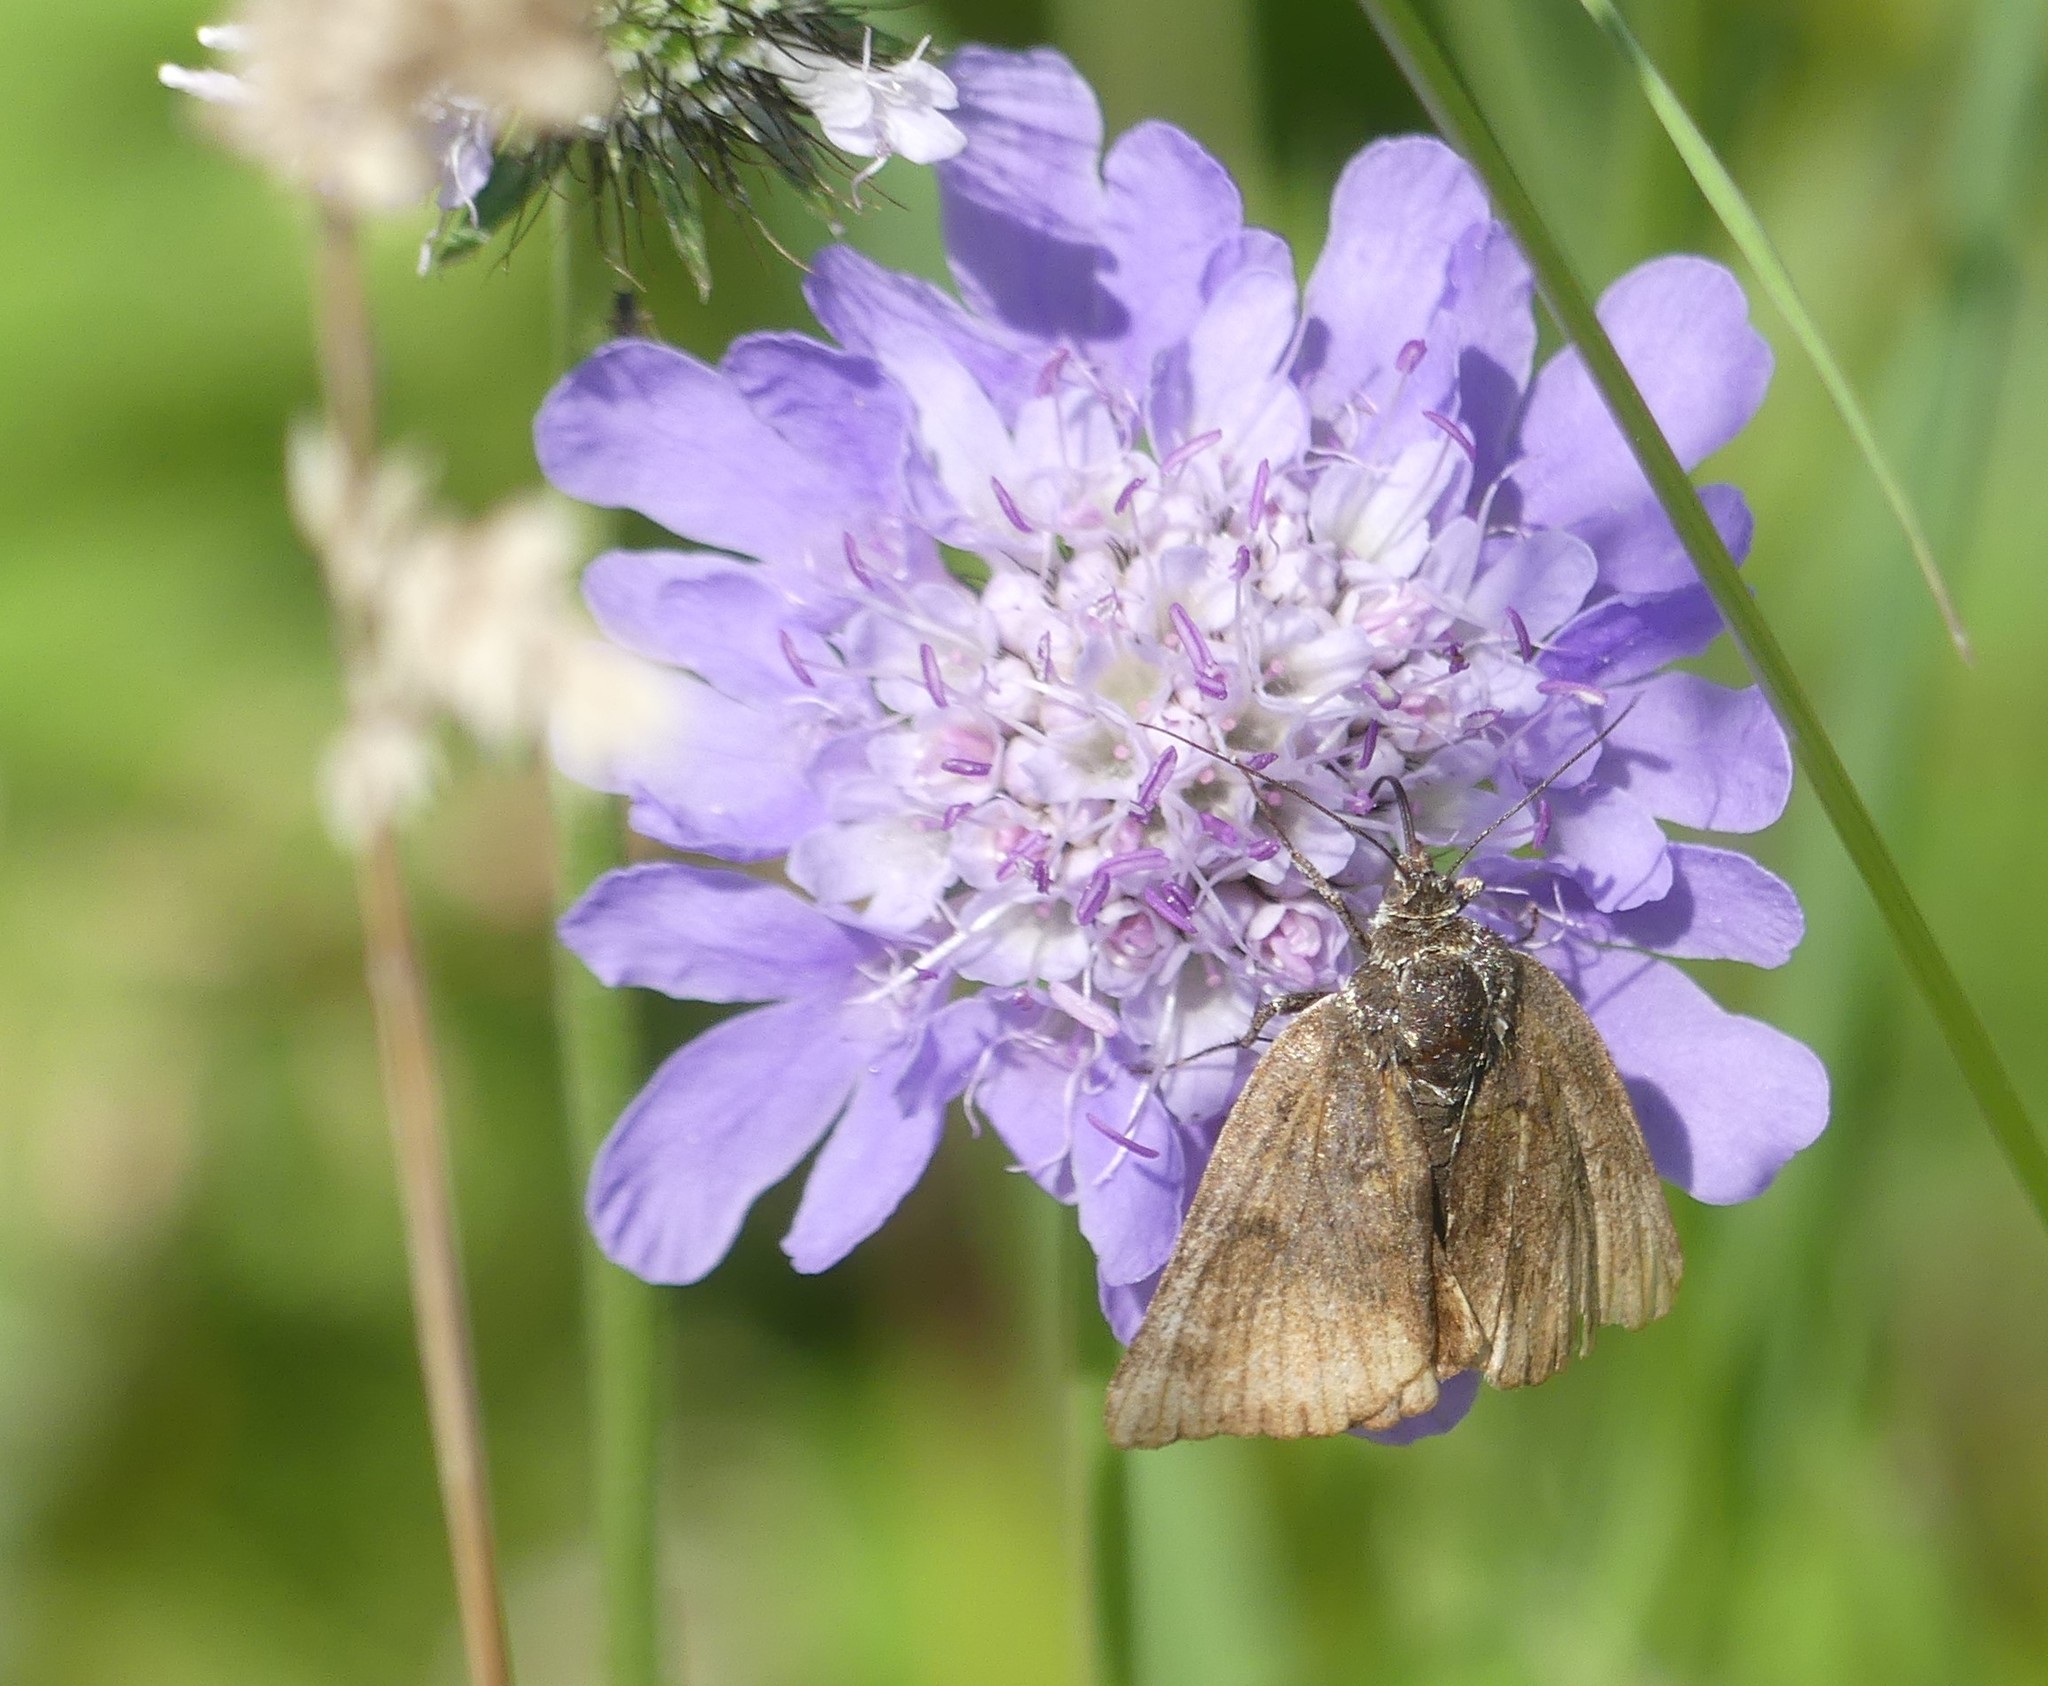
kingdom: Animalia
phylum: Arthropoda
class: Insecta
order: Lepidoptera
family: Erebidae
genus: Euclidia
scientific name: Euclidia glyphica
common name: Burnet companion
